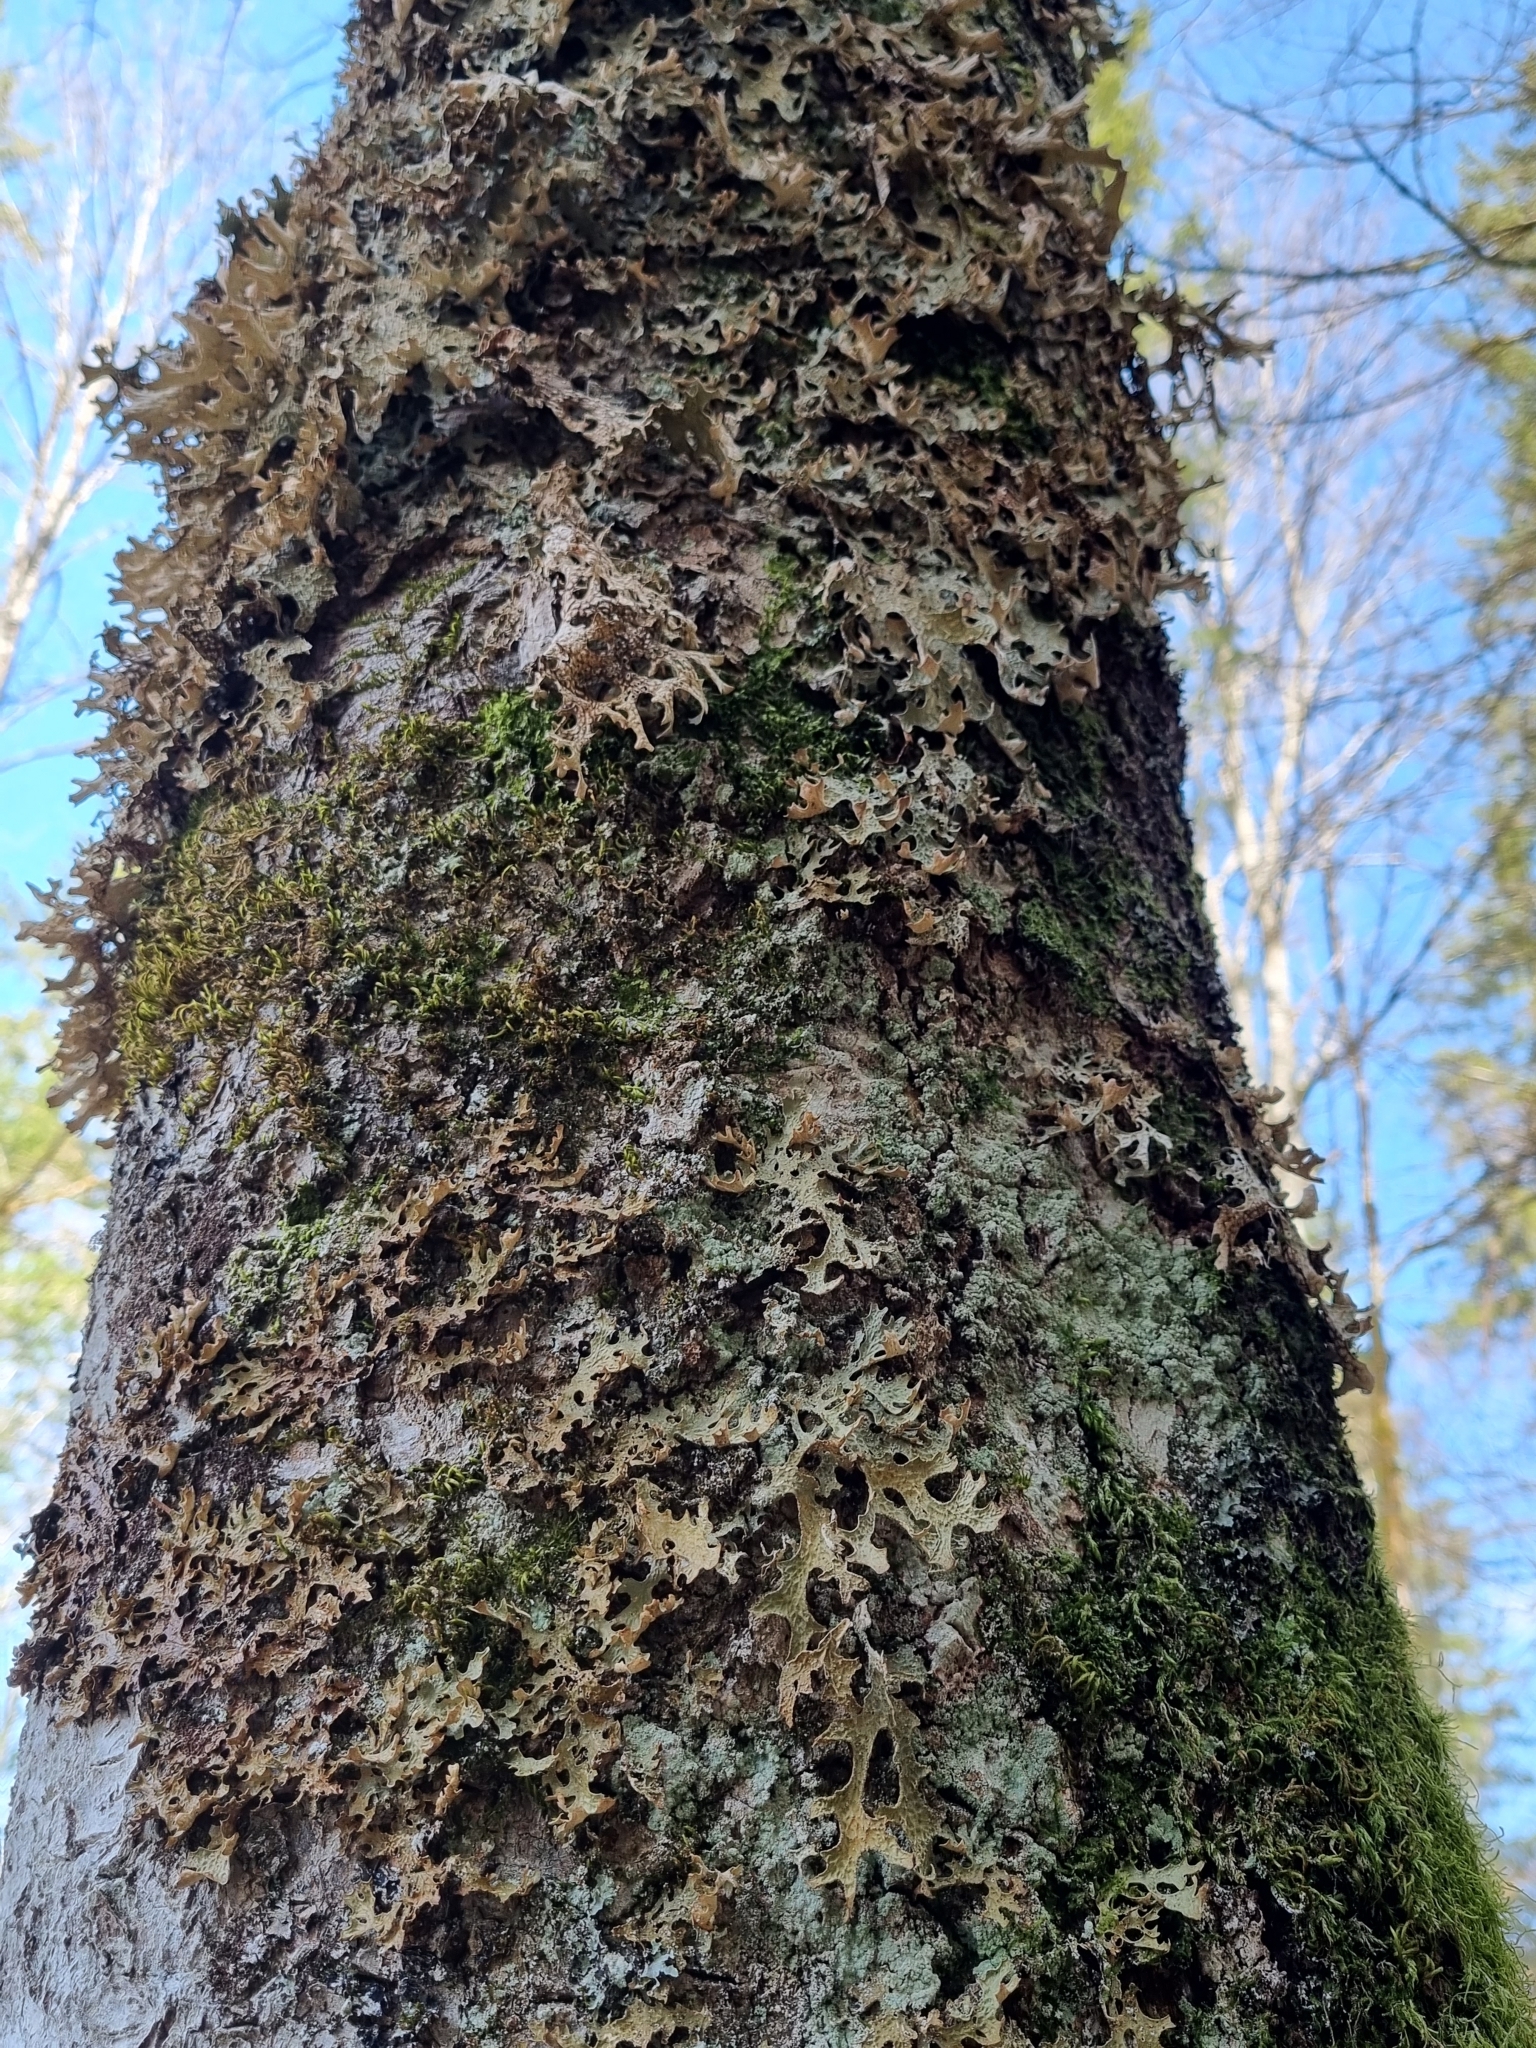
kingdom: Fungi
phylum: Ascomycota
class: Lecanoromycetes
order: Peltigerales
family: Lobariaceae
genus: Lobaria
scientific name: Lobaria pulmonaria
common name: Lungwort
